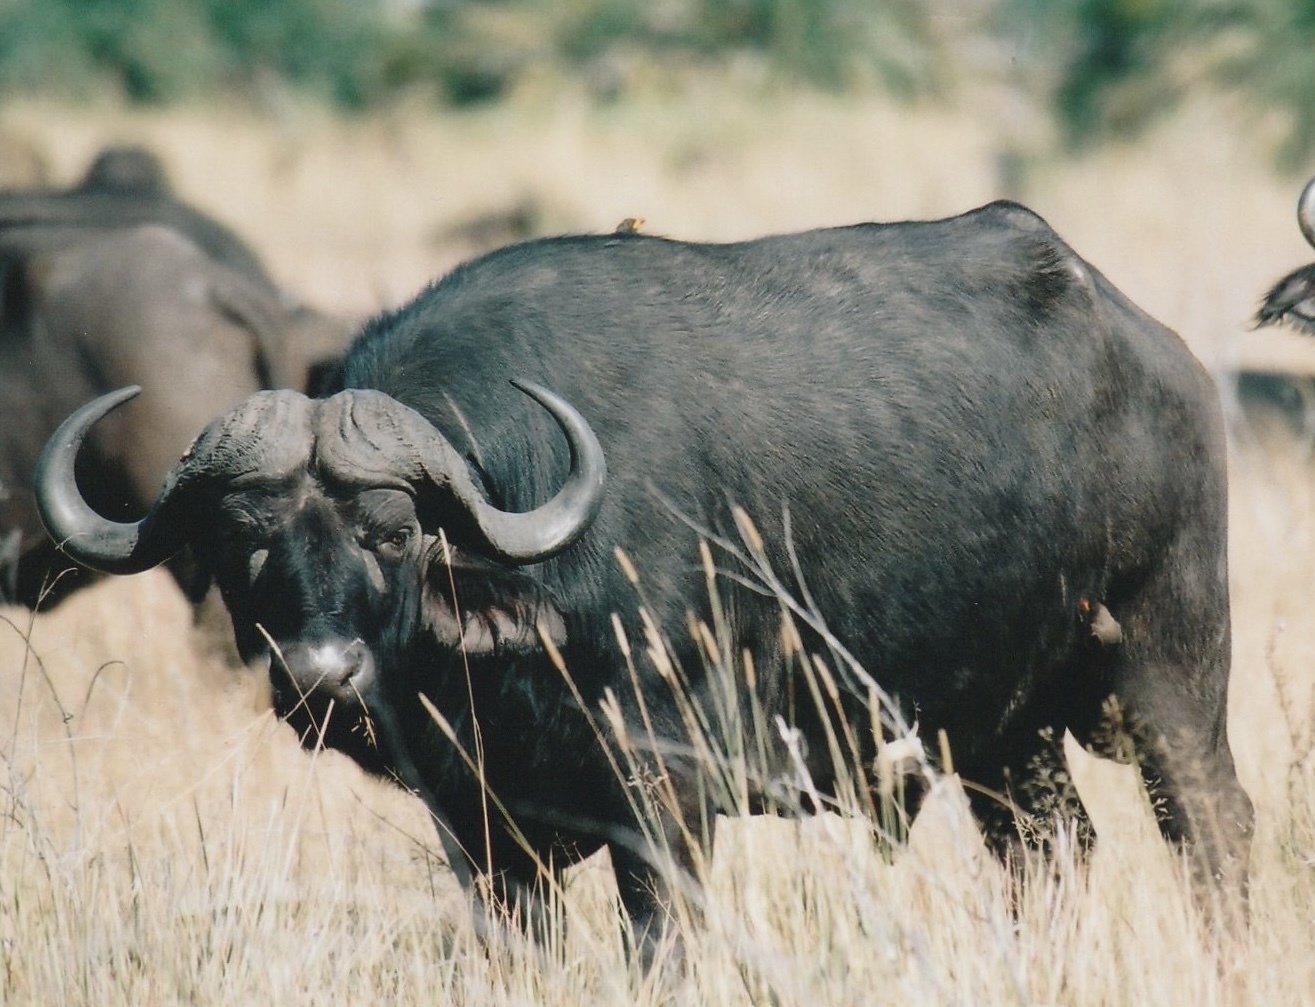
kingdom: Animalia
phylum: Chordata
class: Mammalia
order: Artiodactyla
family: Bovidae
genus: Syncerus
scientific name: Syncerus caffer
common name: African buffalo
